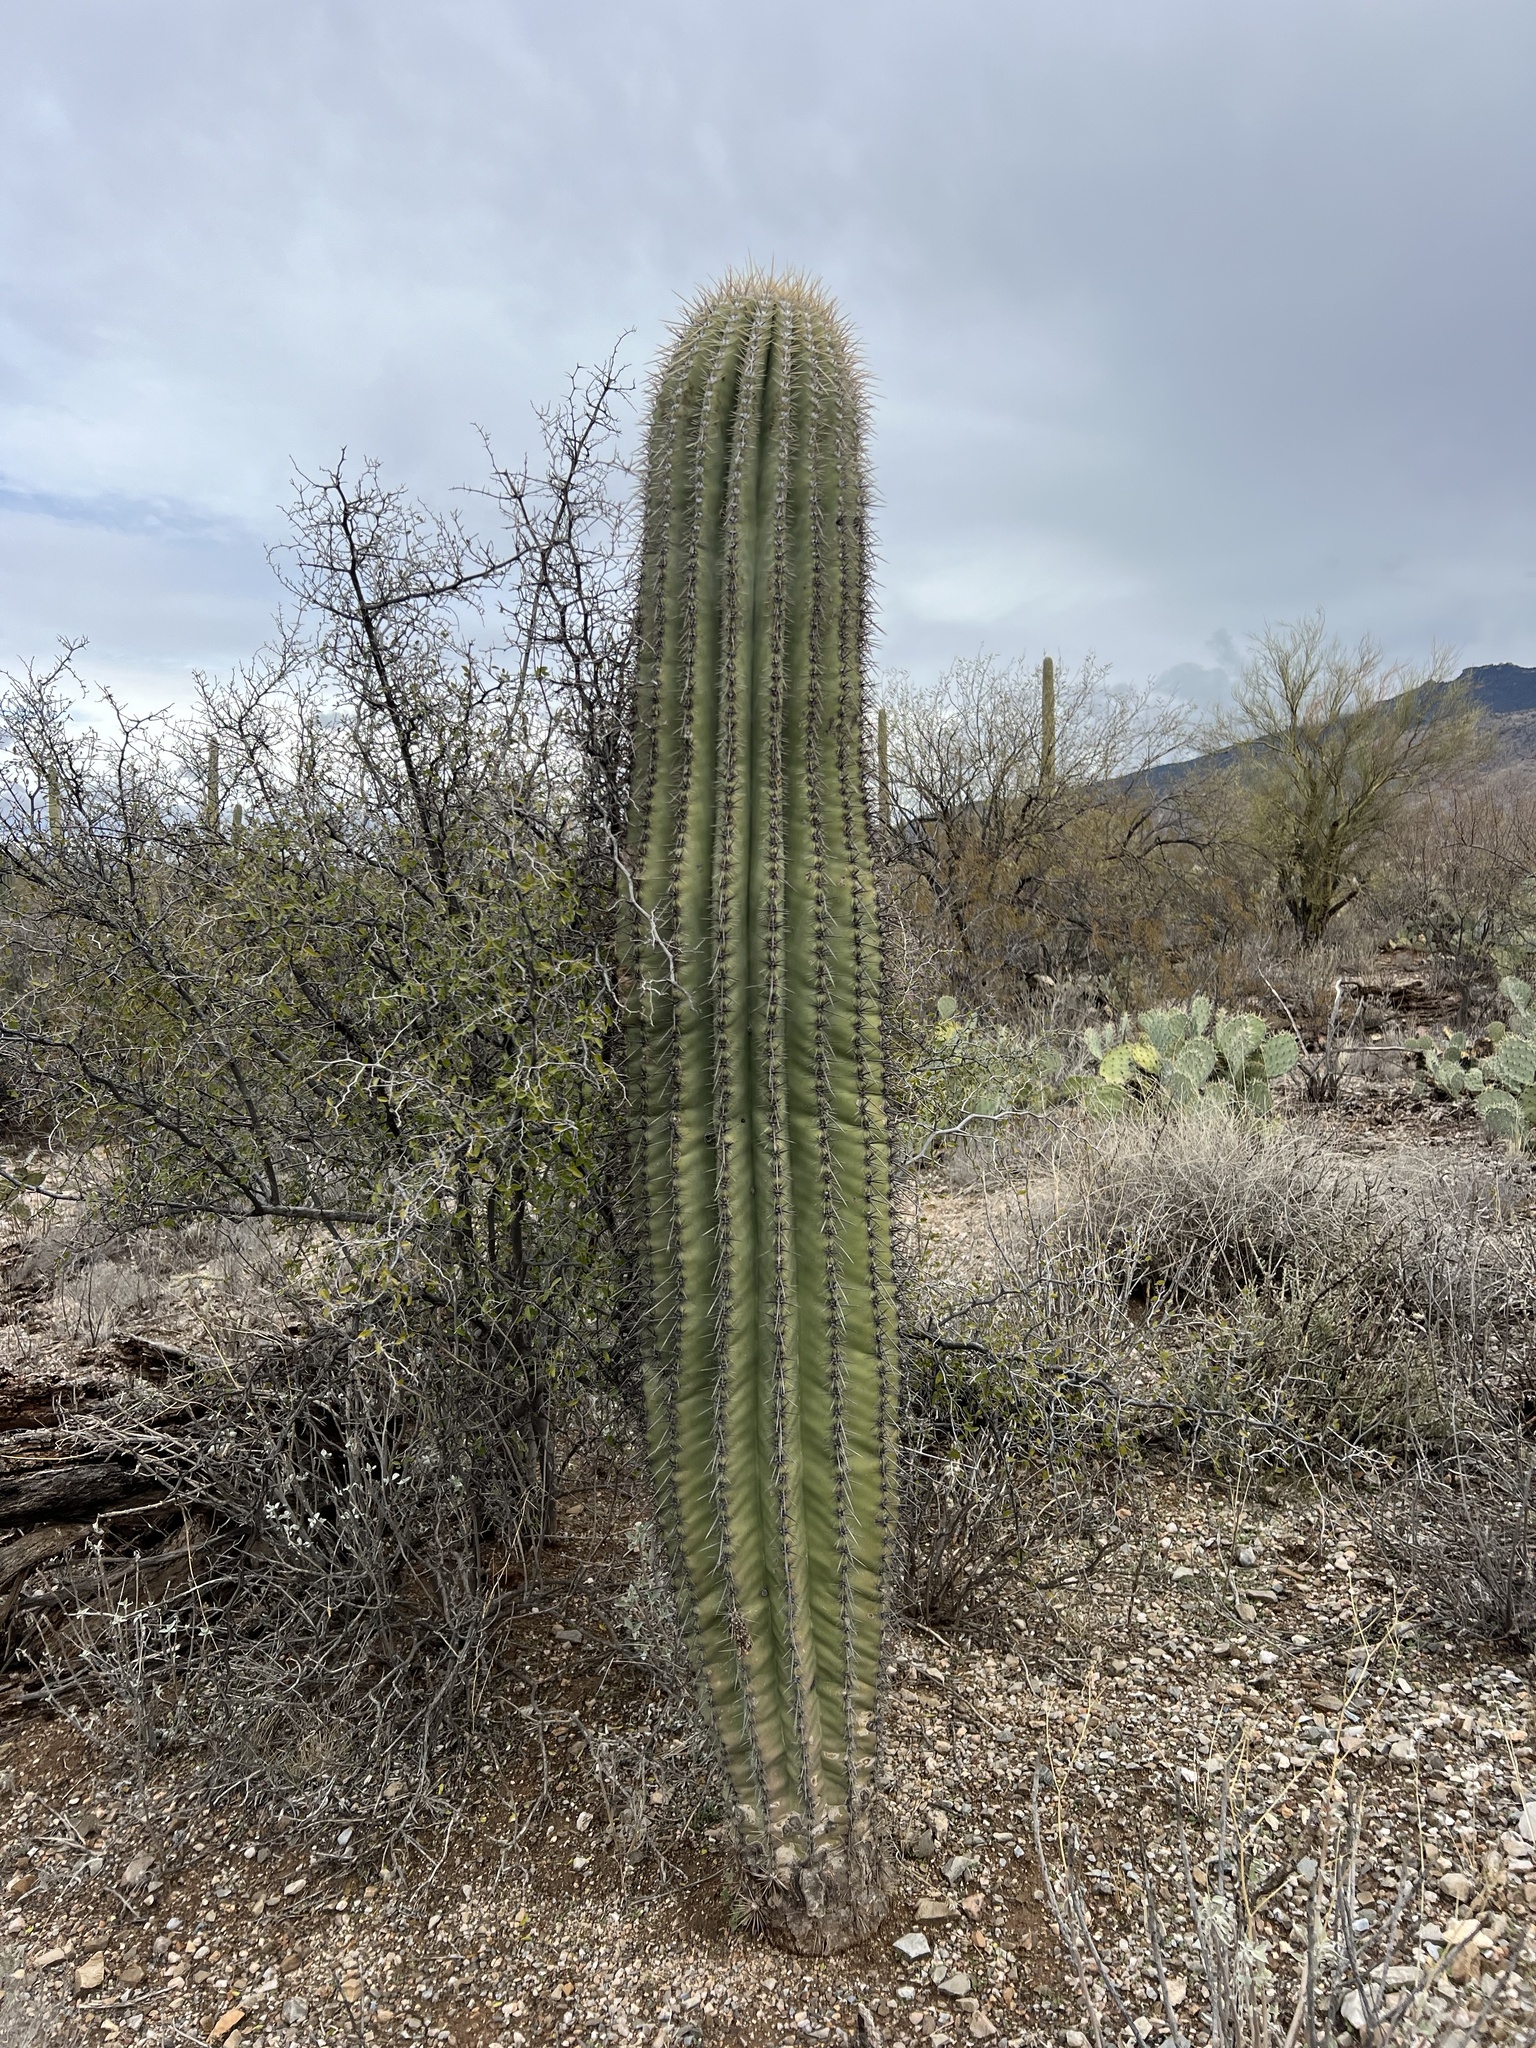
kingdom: Plantae
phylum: Tracheophyta
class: Magnoliopsida
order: Caryophyllales
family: Cactaceae
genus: Carnegiea
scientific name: Carnegiea gigantea
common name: Saguaro
